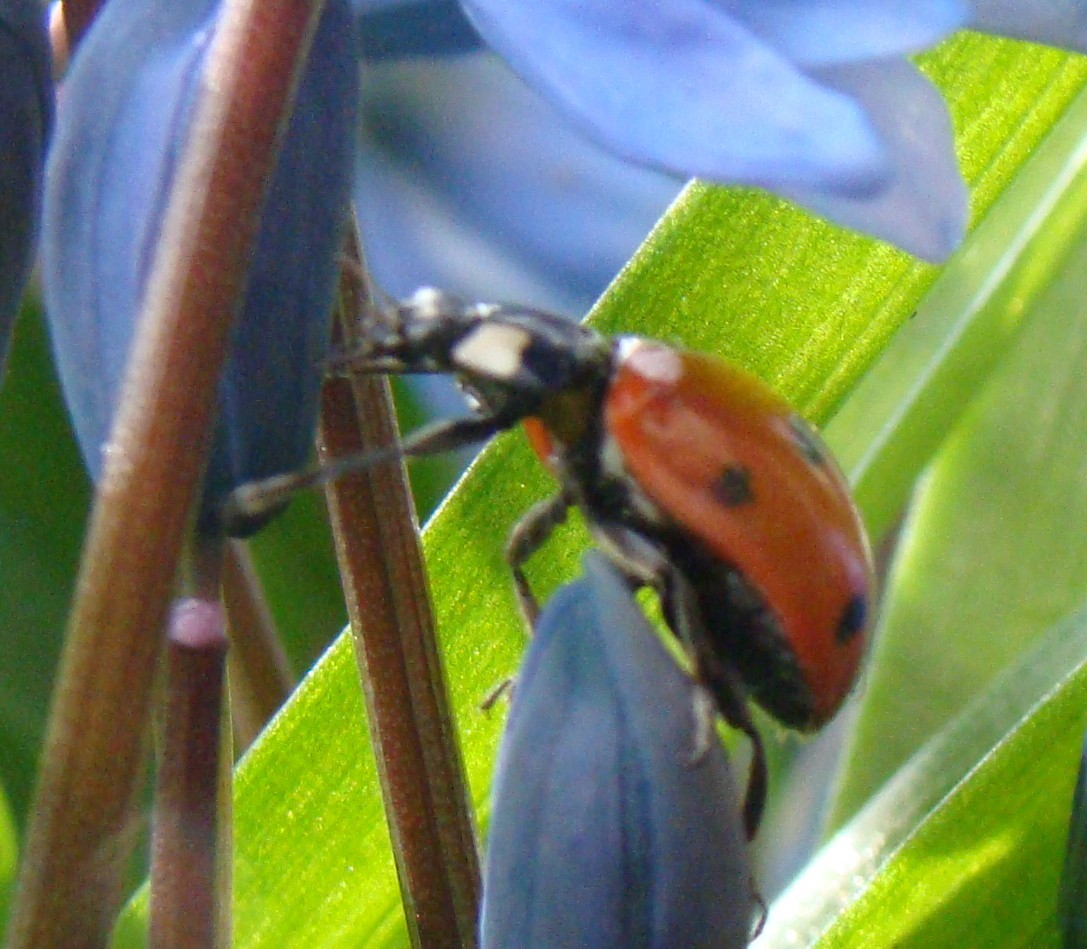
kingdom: Animalia
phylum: Arthropoda
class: Insecta
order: Coleoptera
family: Coccinellidae
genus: Coccinella
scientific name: Coccinella septempunctata
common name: Sevenspotted lady beetle
